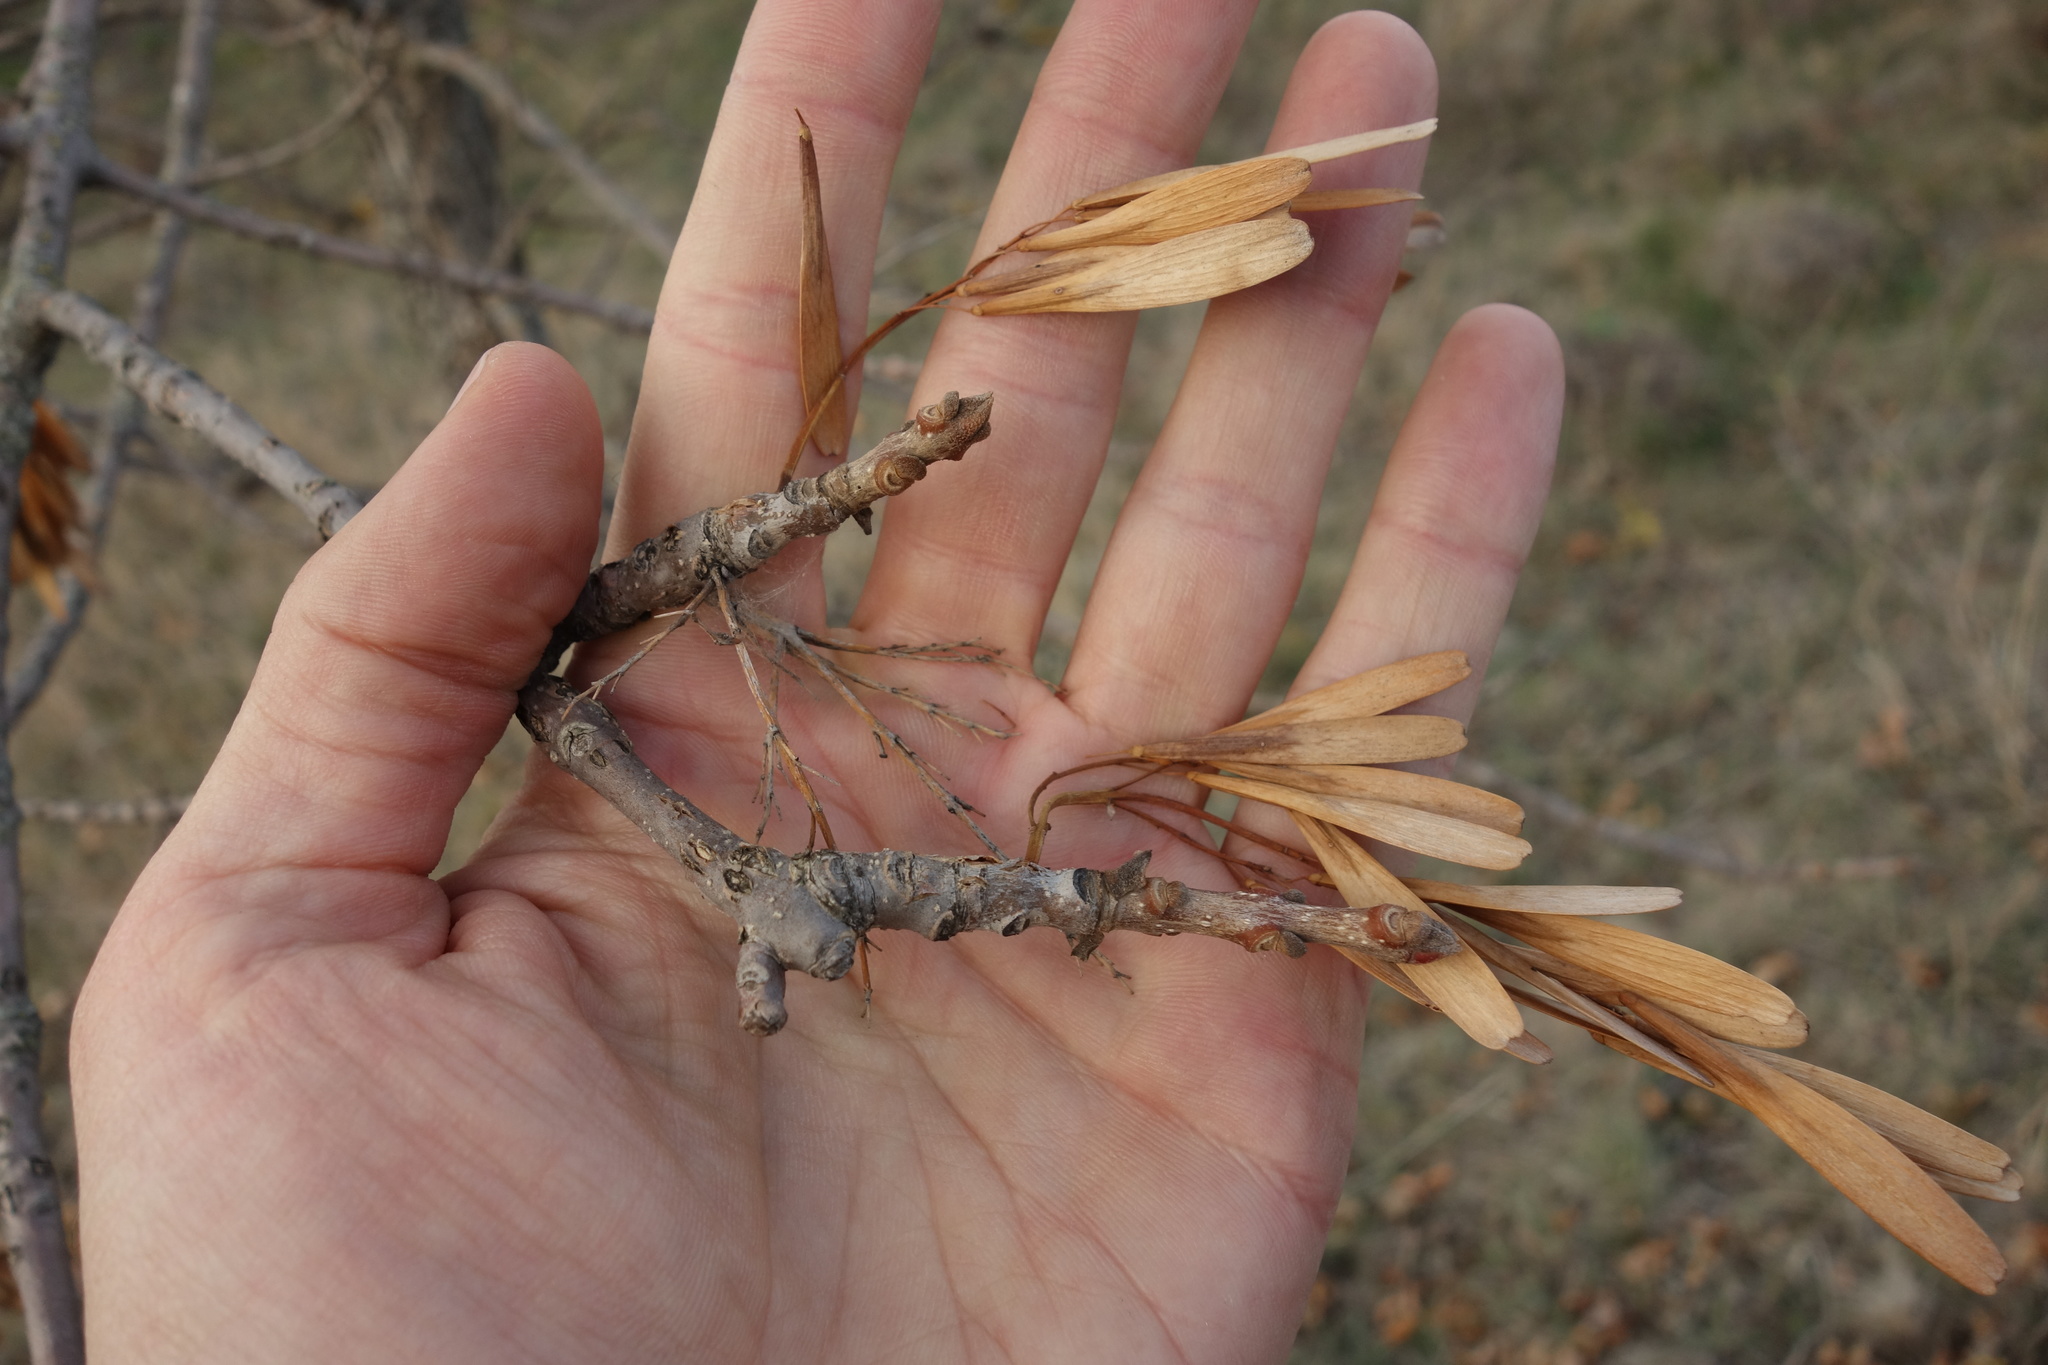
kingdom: Plantae
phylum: Tracheophyta
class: Magnoliopsida
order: Lamiales
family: Oleaceae
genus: Fraxinus
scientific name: Fraxinus pennsylvanica
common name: Green ash
